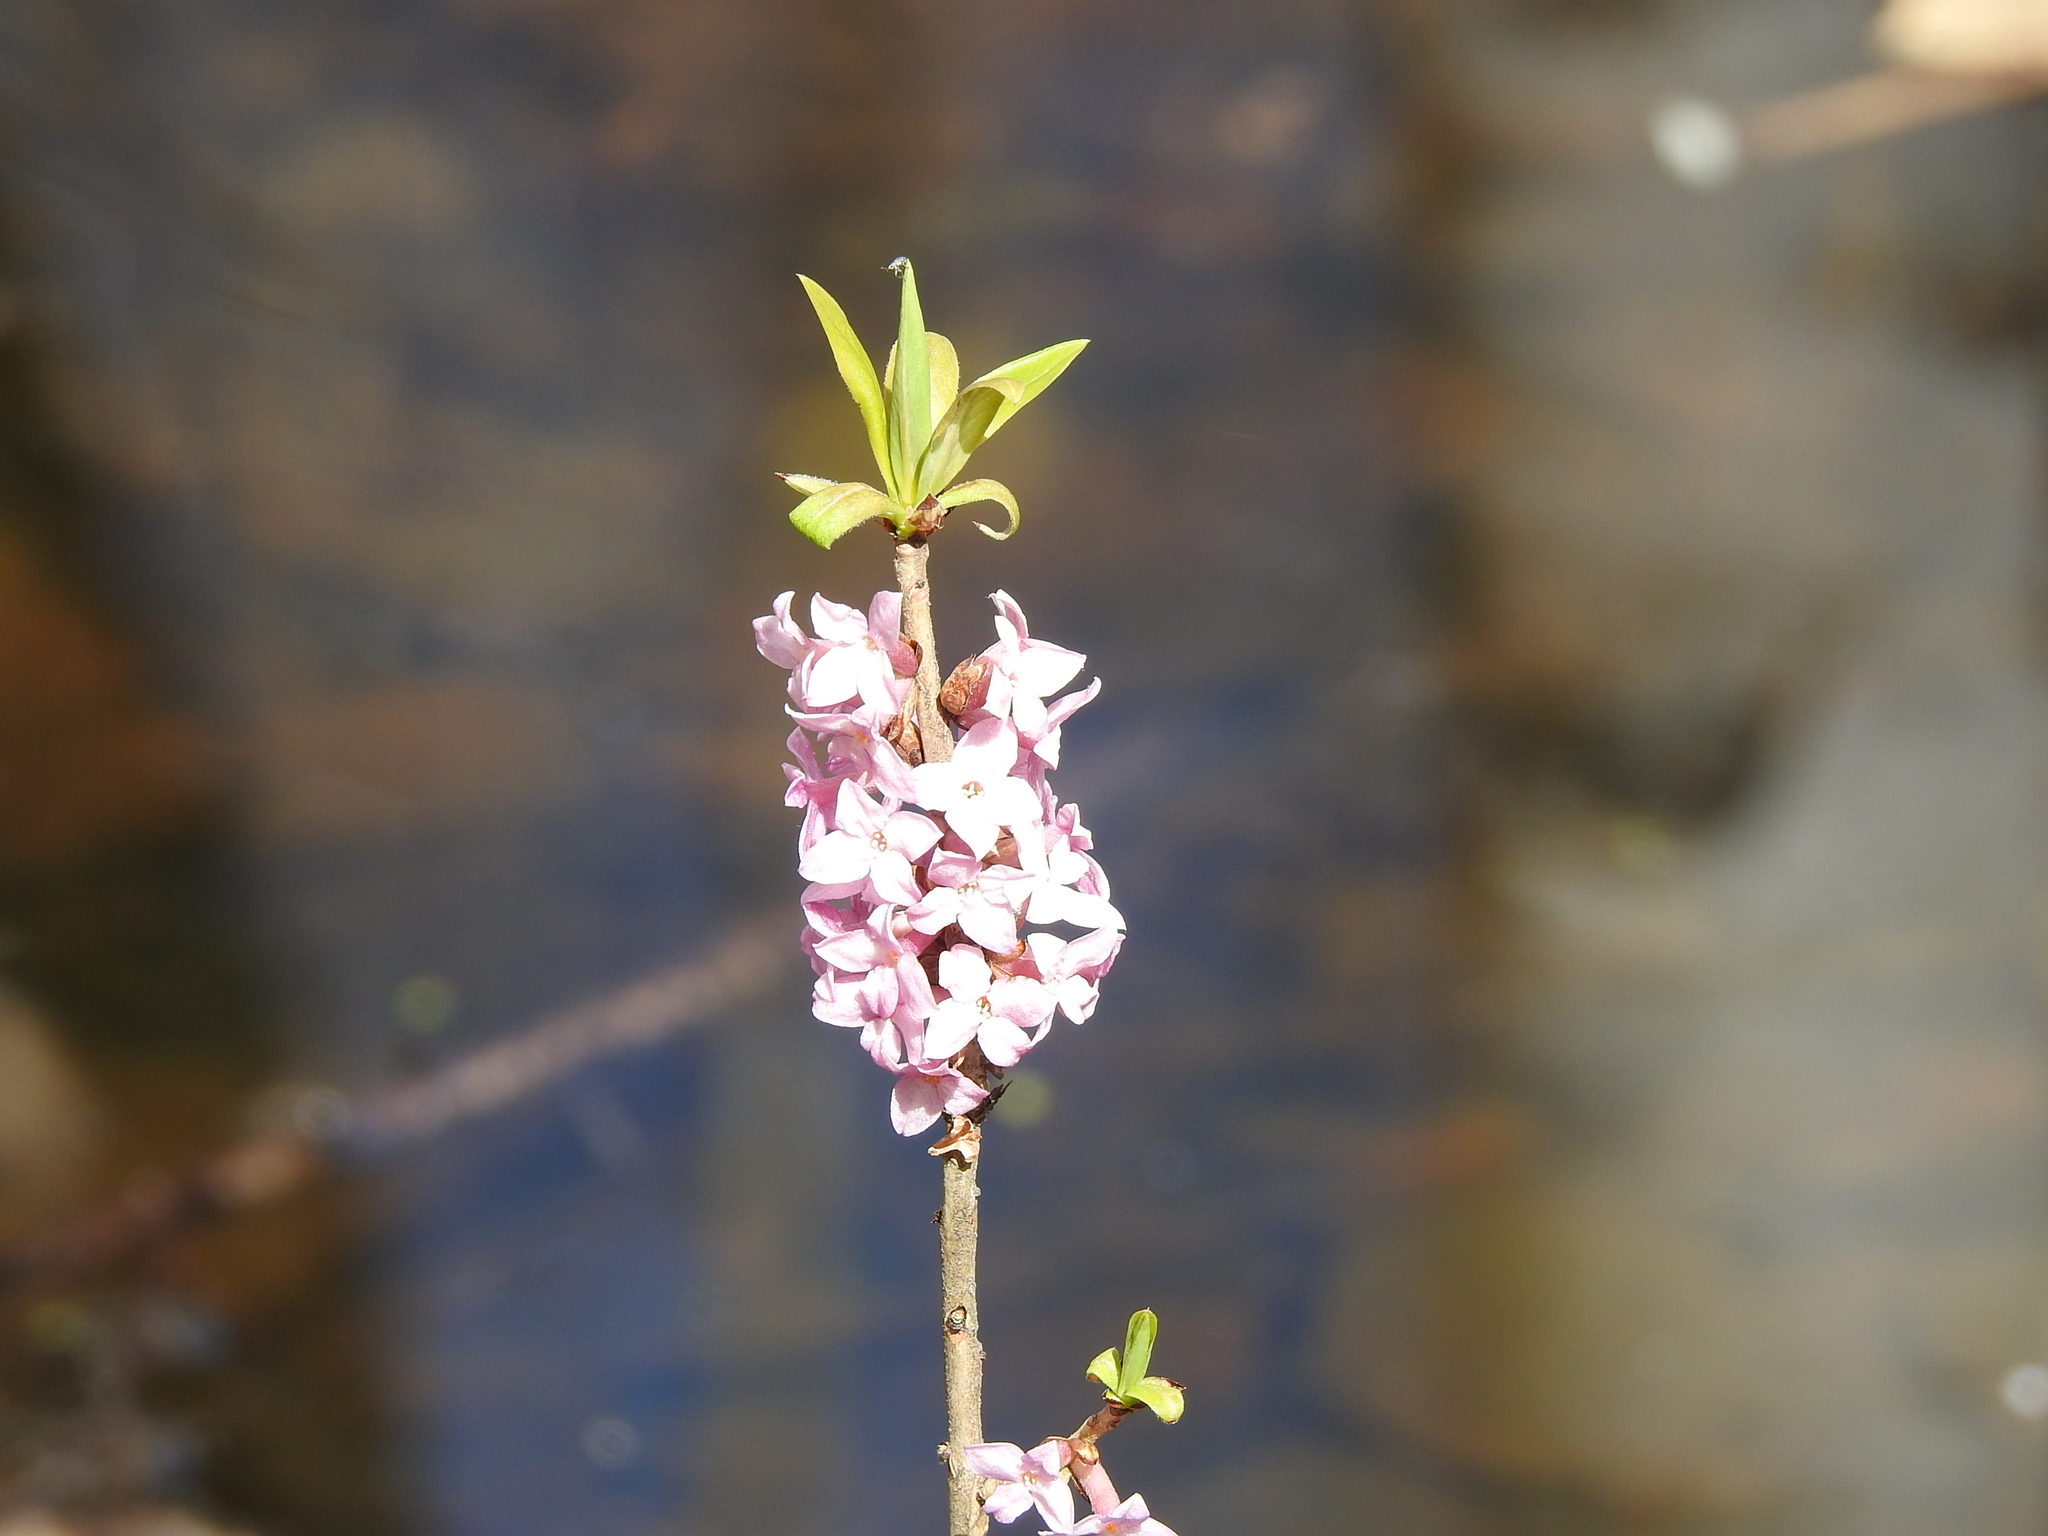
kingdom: Plantae
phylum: Tracheophyta
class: Magnoliopsida
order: Malvales
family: Thymelaeaceae
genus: Daphne
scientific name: Daphne mezereum
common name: Mezereon
